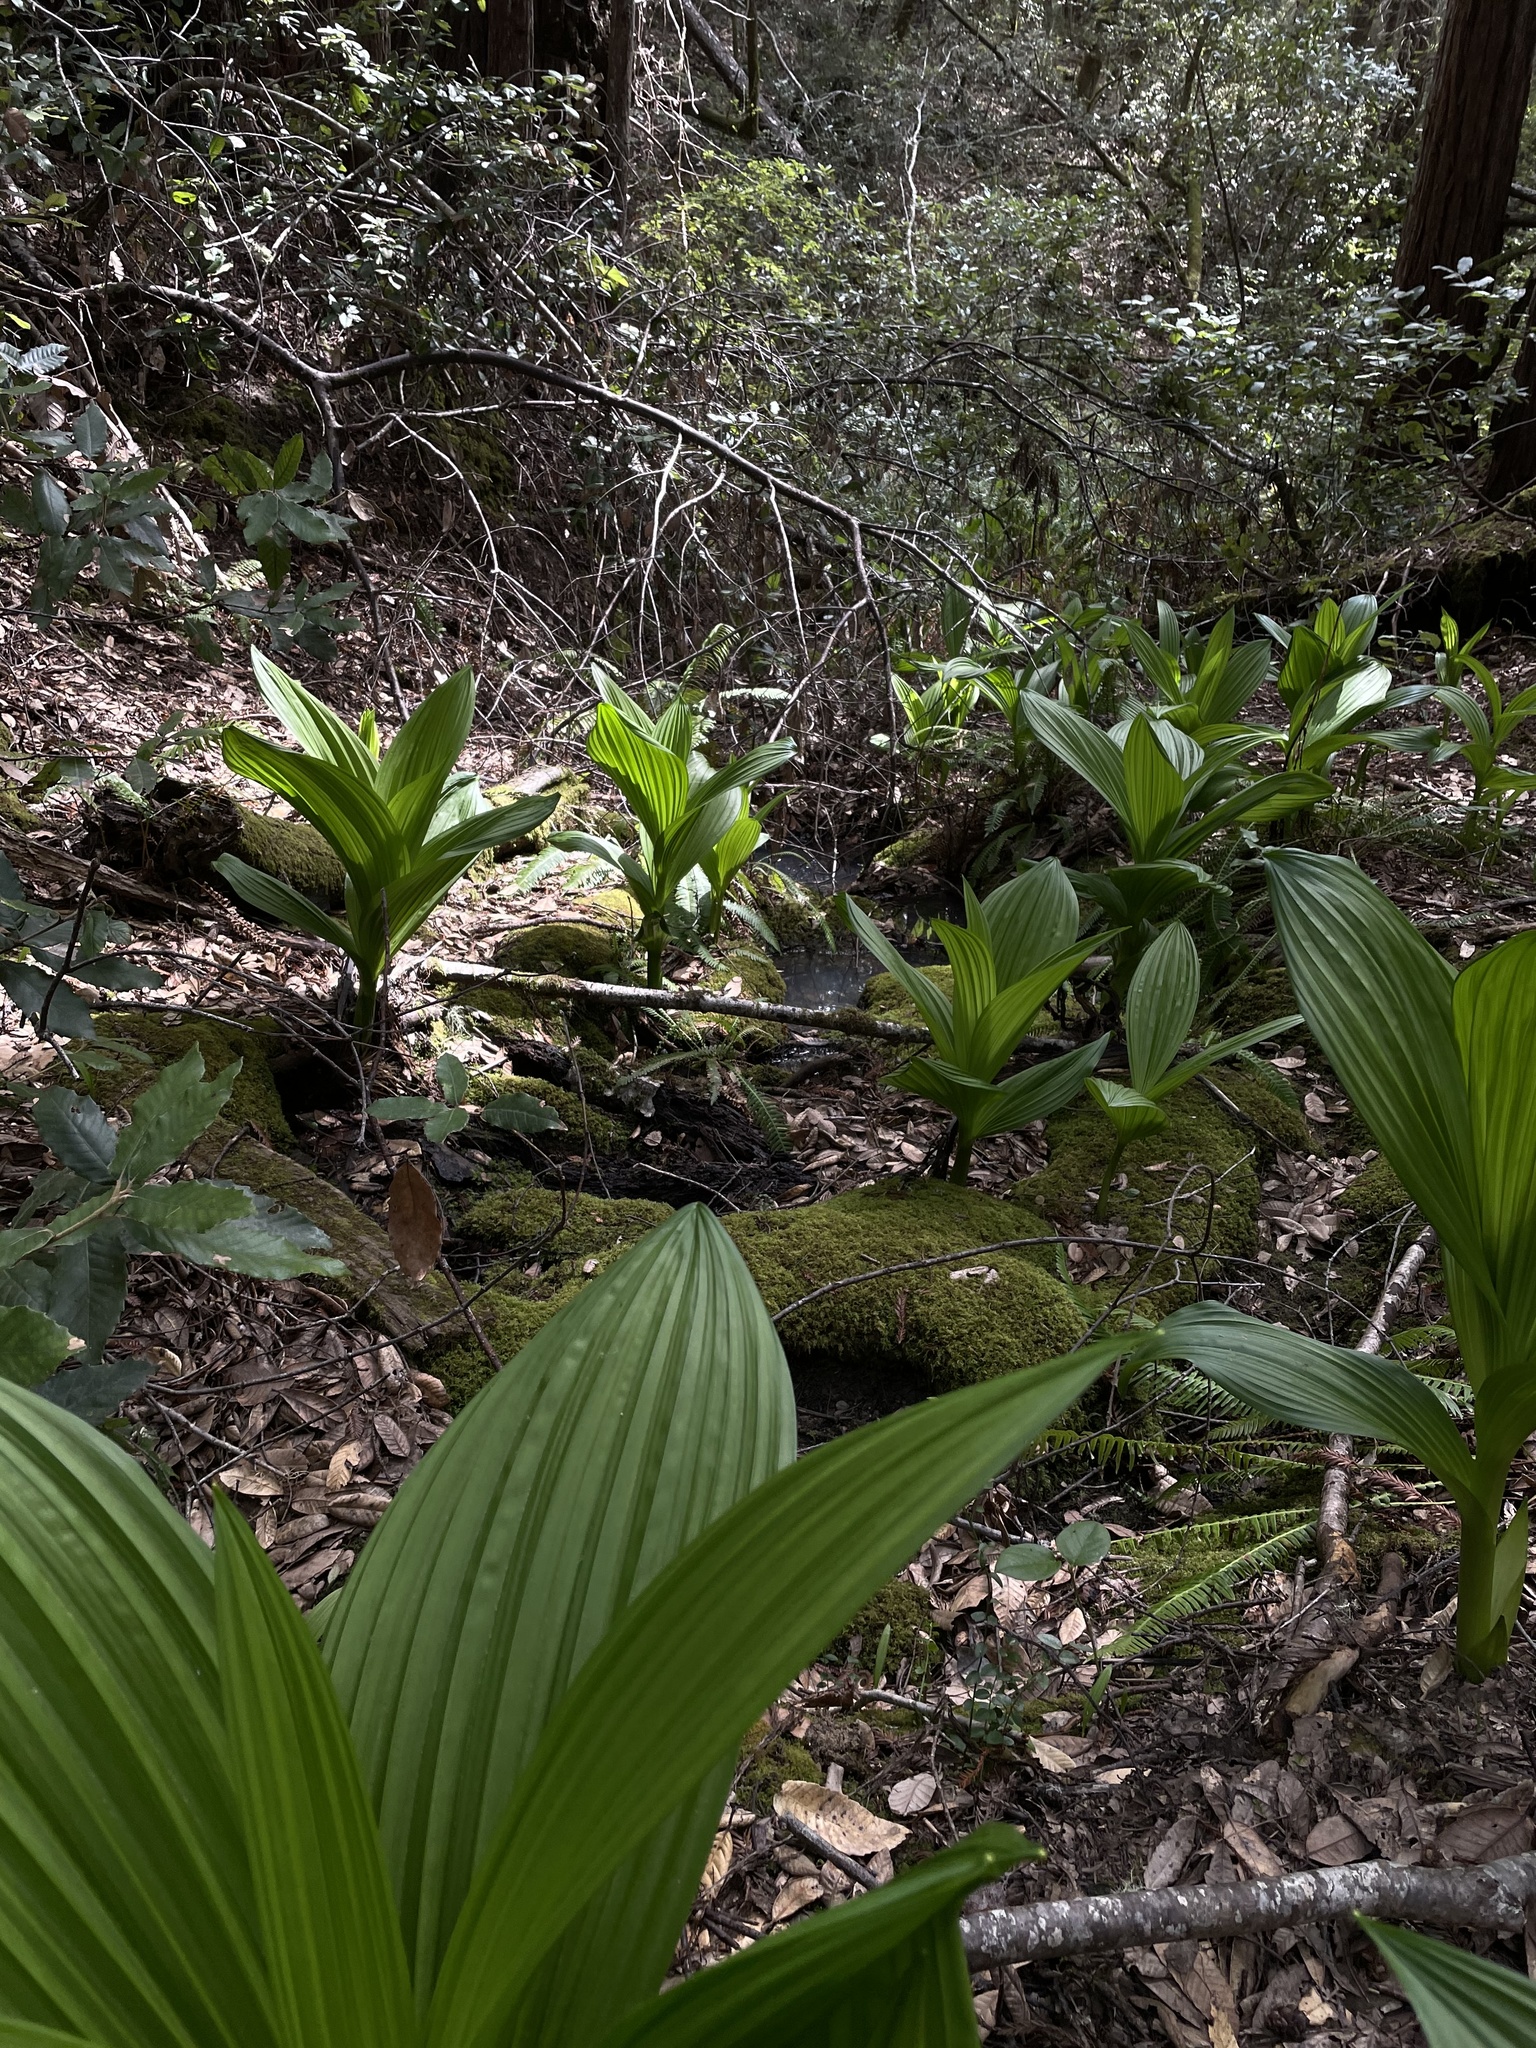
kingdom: Plantae
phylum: Tracheophyta
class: Liliopsida
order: Liliales
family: Melanthiaceae
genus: Veratrum
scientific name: Veratrum fimbriatum
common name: Fringe false hellobore
